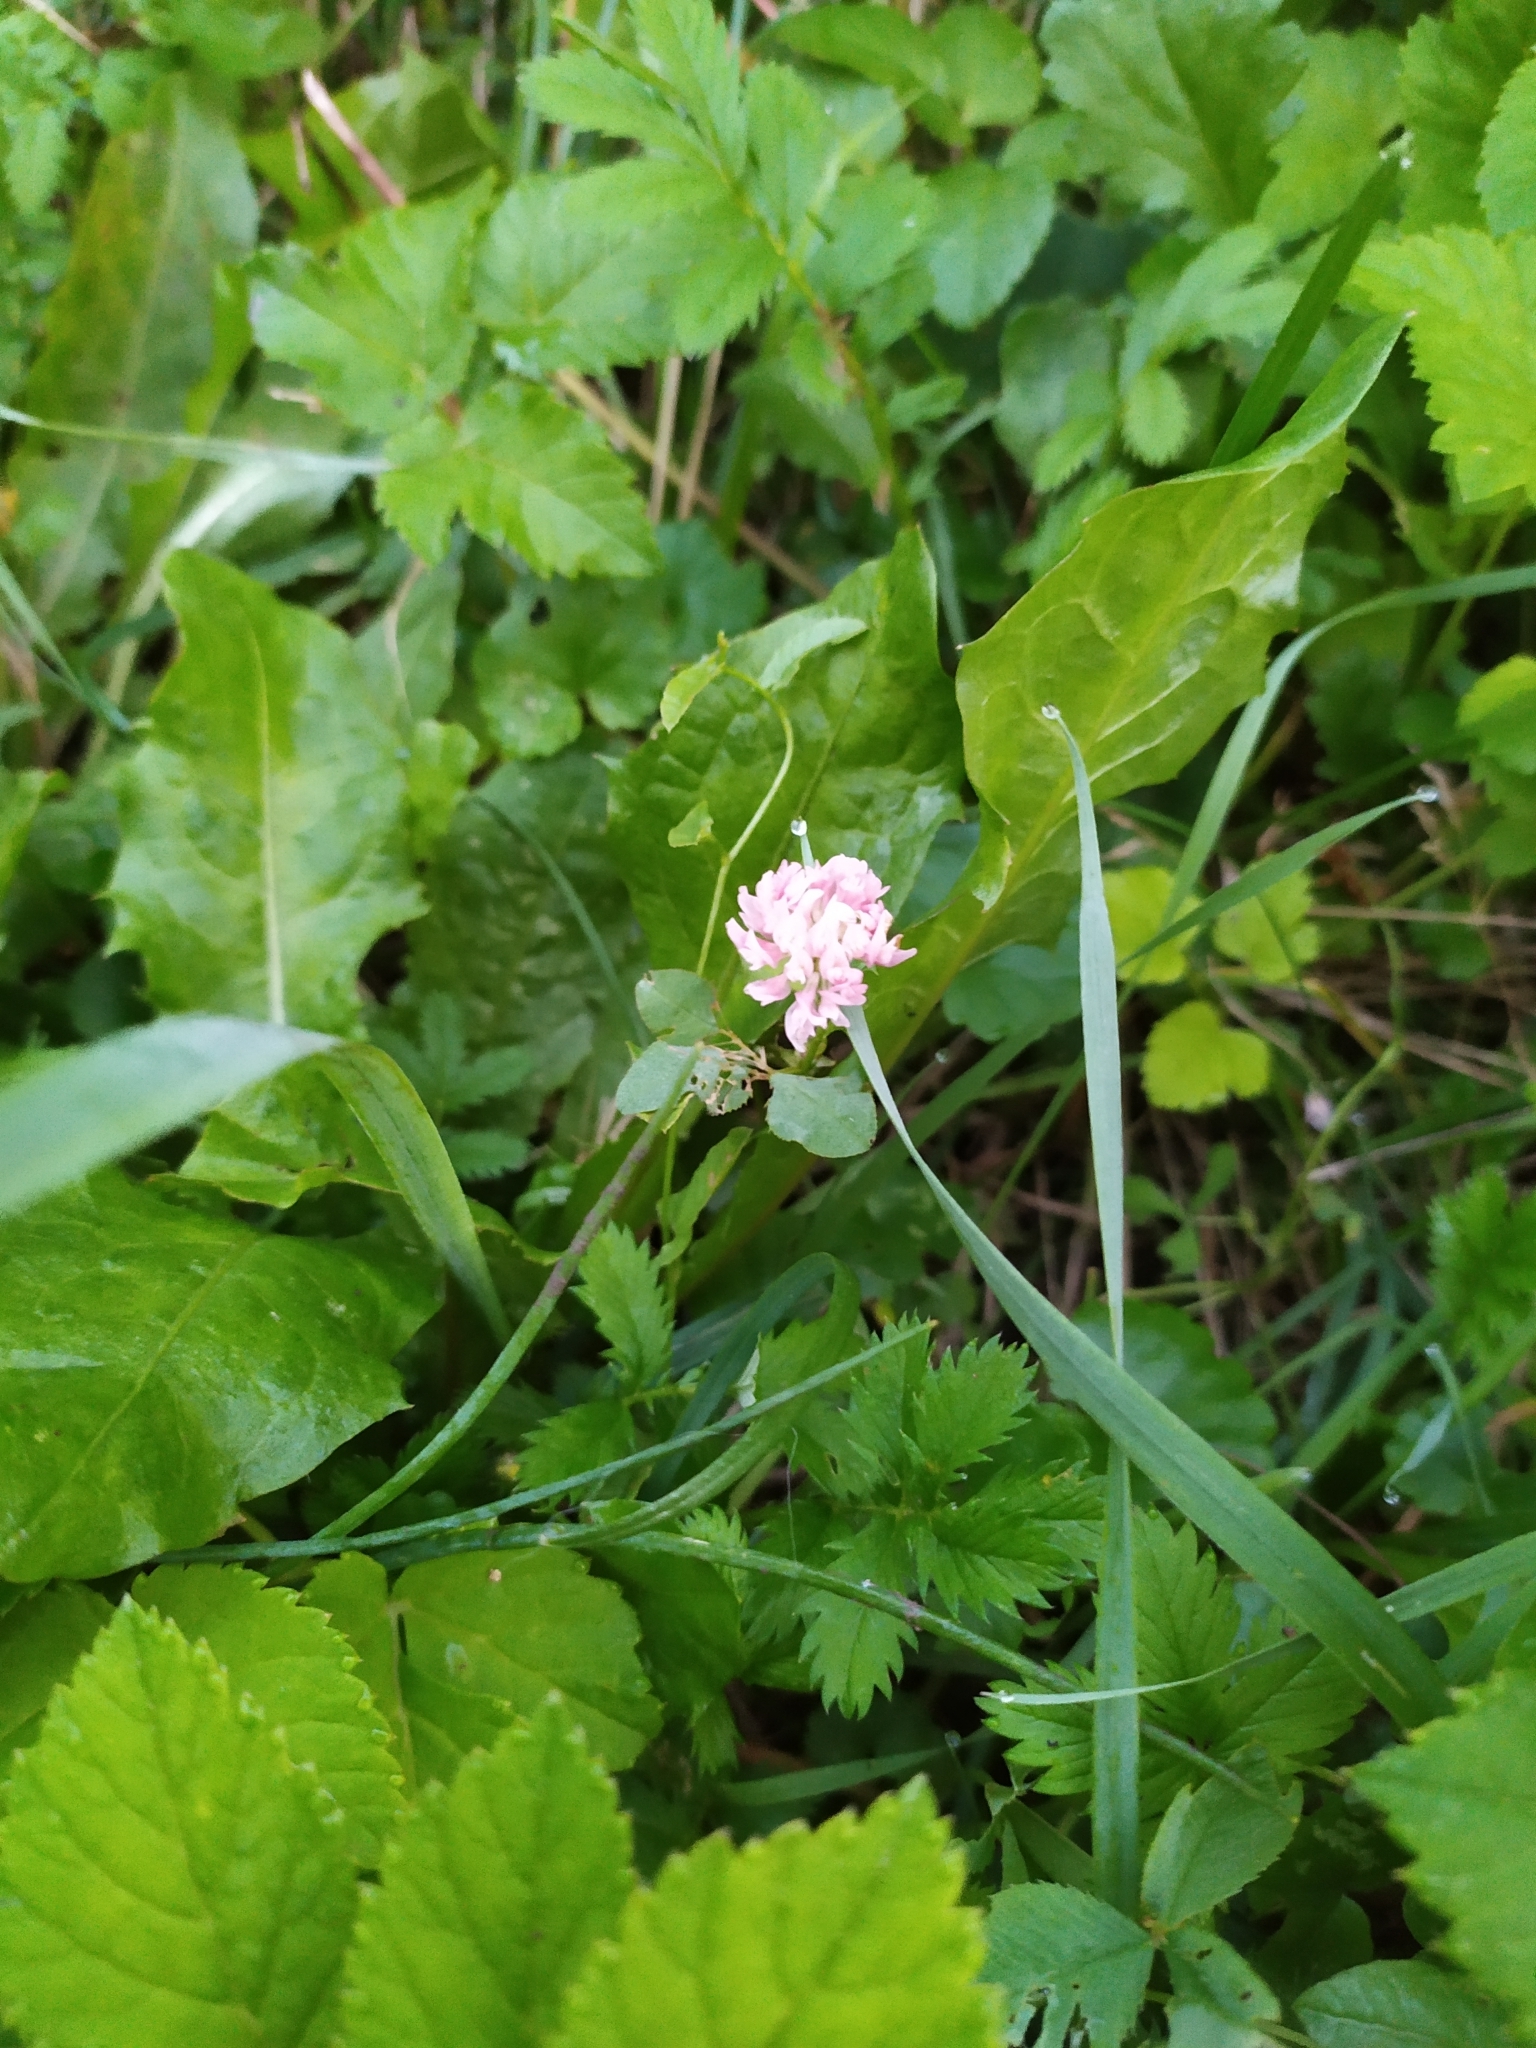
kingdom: Plantae
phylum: Tracheophyta
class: Magnoliopsida
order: Fabales
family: Fabaceae
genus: Trifolium
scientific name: Trifolium hybridum
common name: Alsike clover
